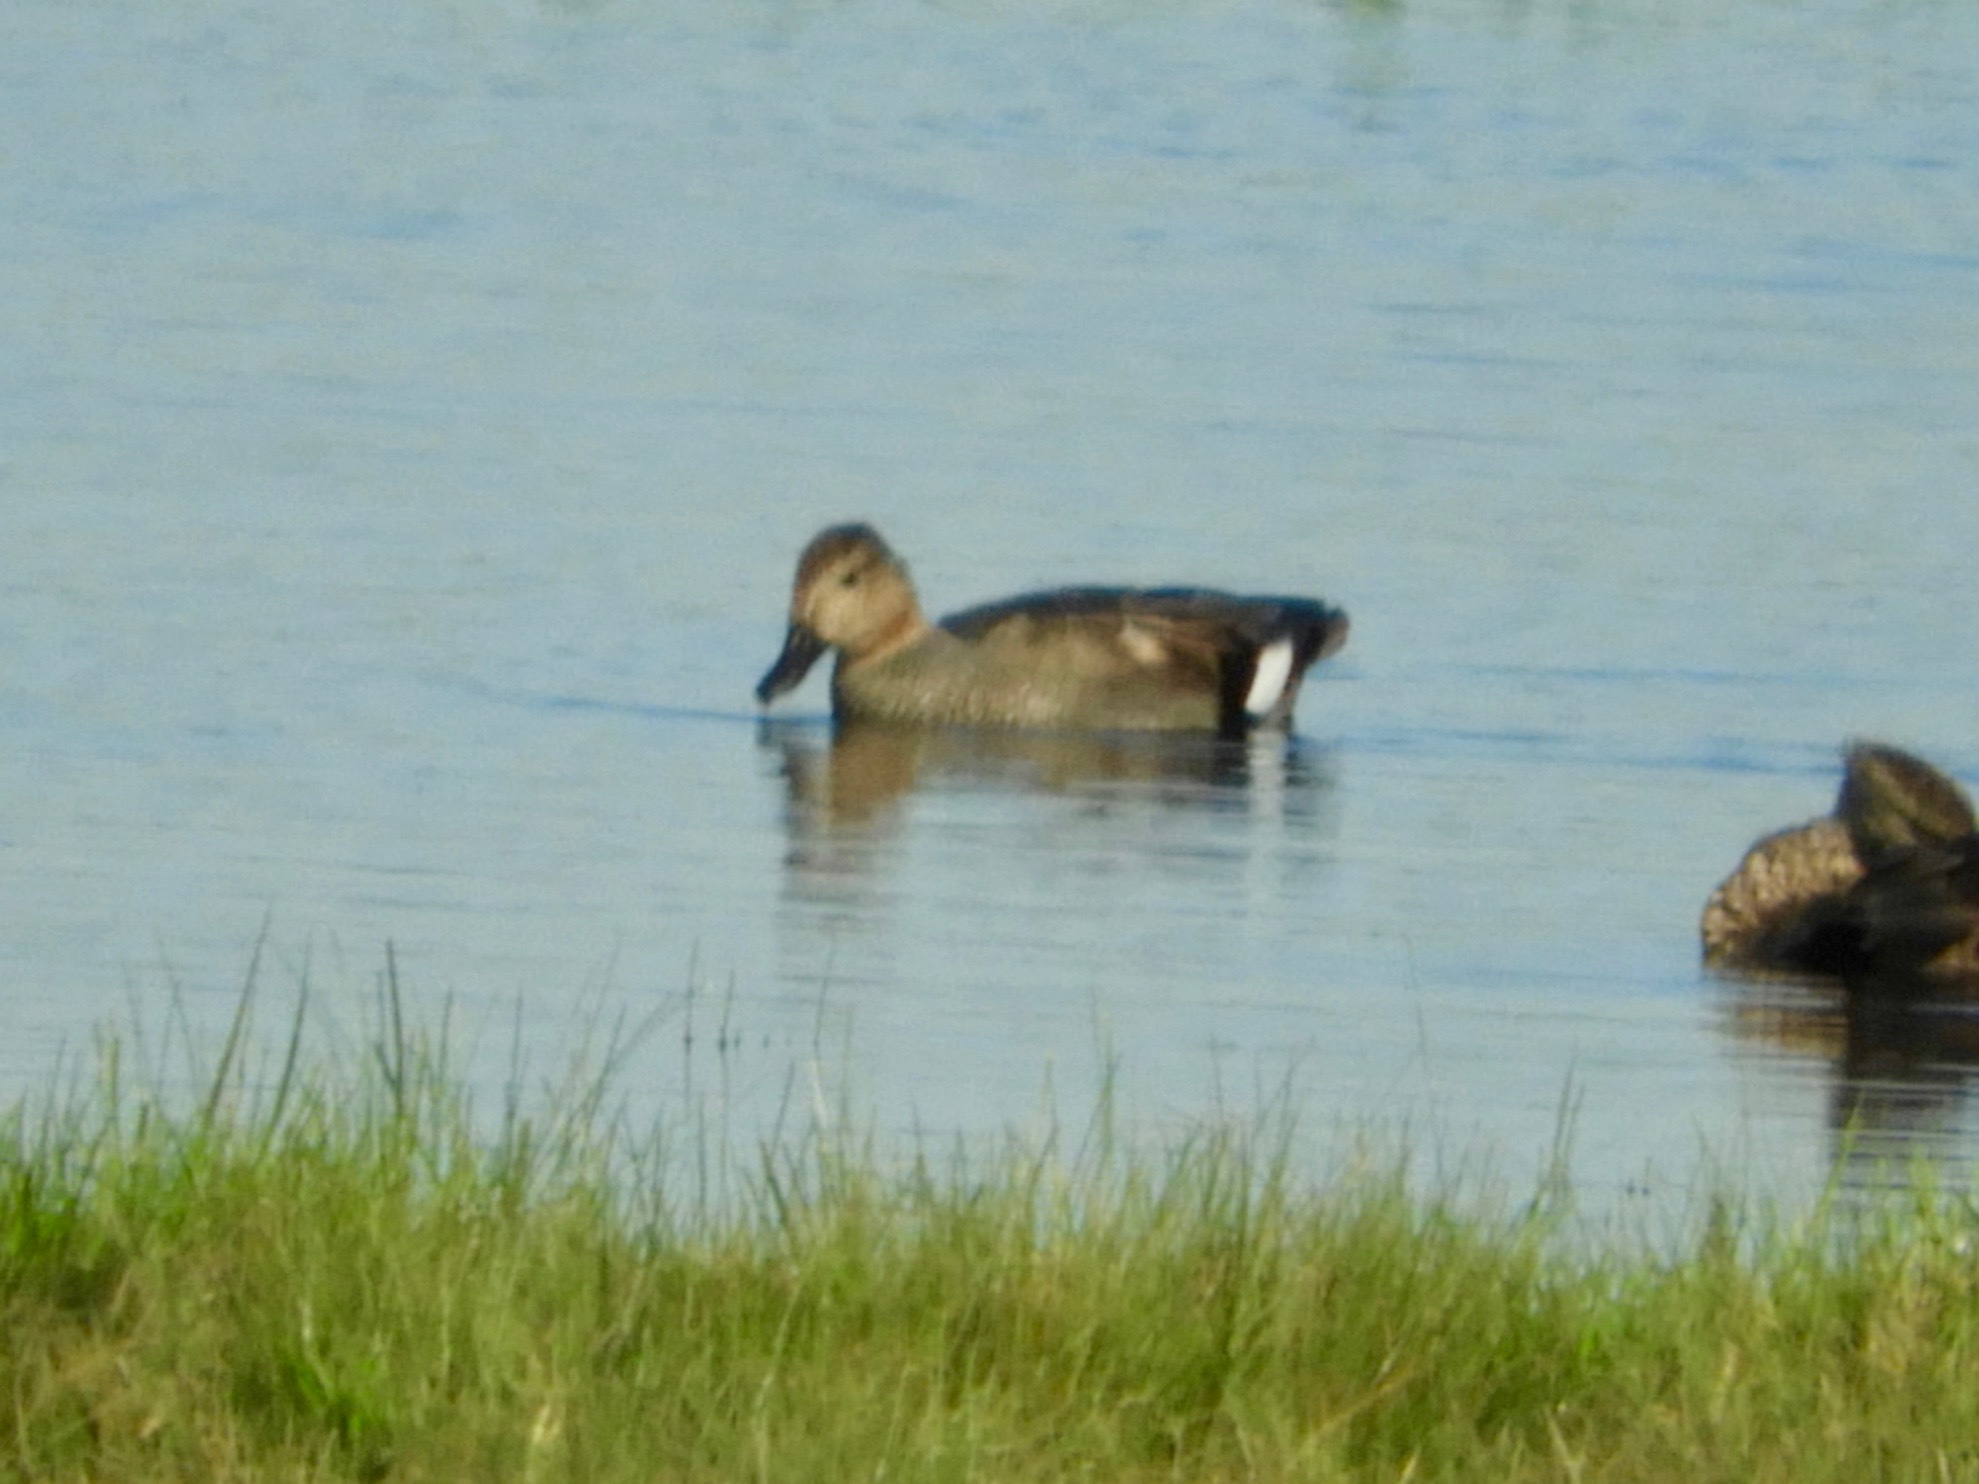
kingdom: Animalia
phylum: Chordata
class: Aves
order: Anseriformes
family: Anatidae
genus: Mareca
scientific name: Mareca strepera
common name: Gadwall
